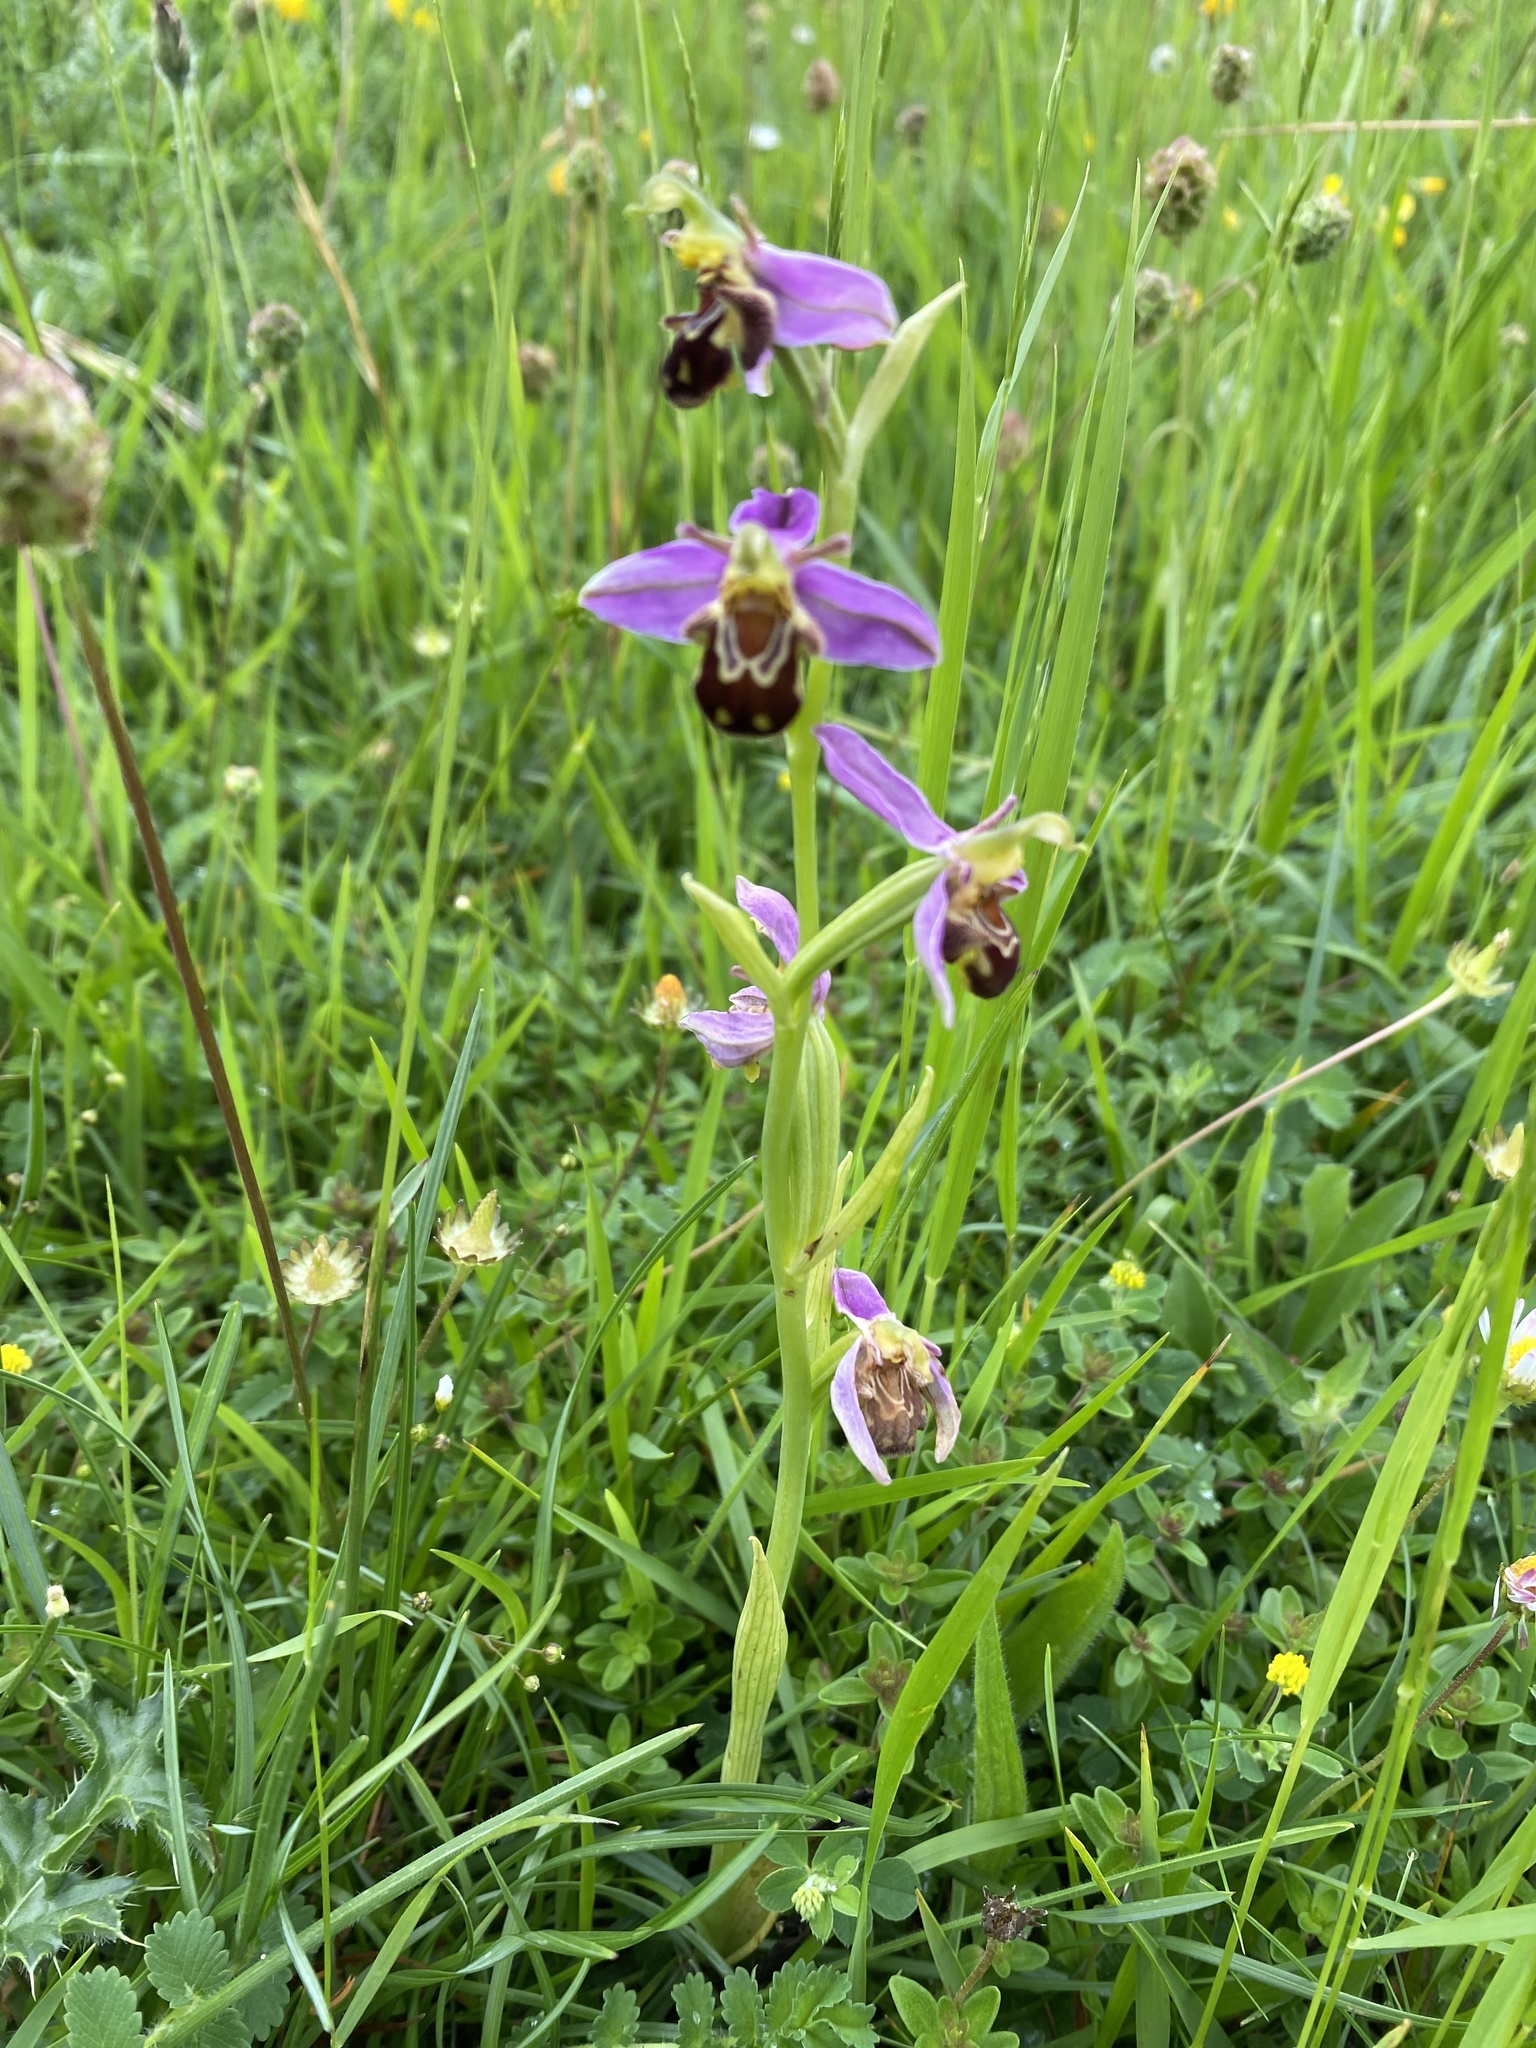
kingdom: Plantae
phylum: Tracheophyta
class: Liliopsida
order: Asparagales
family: Orchidaceae
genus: Ophrys
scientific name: Ophrys apifera
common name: Bee orchid
